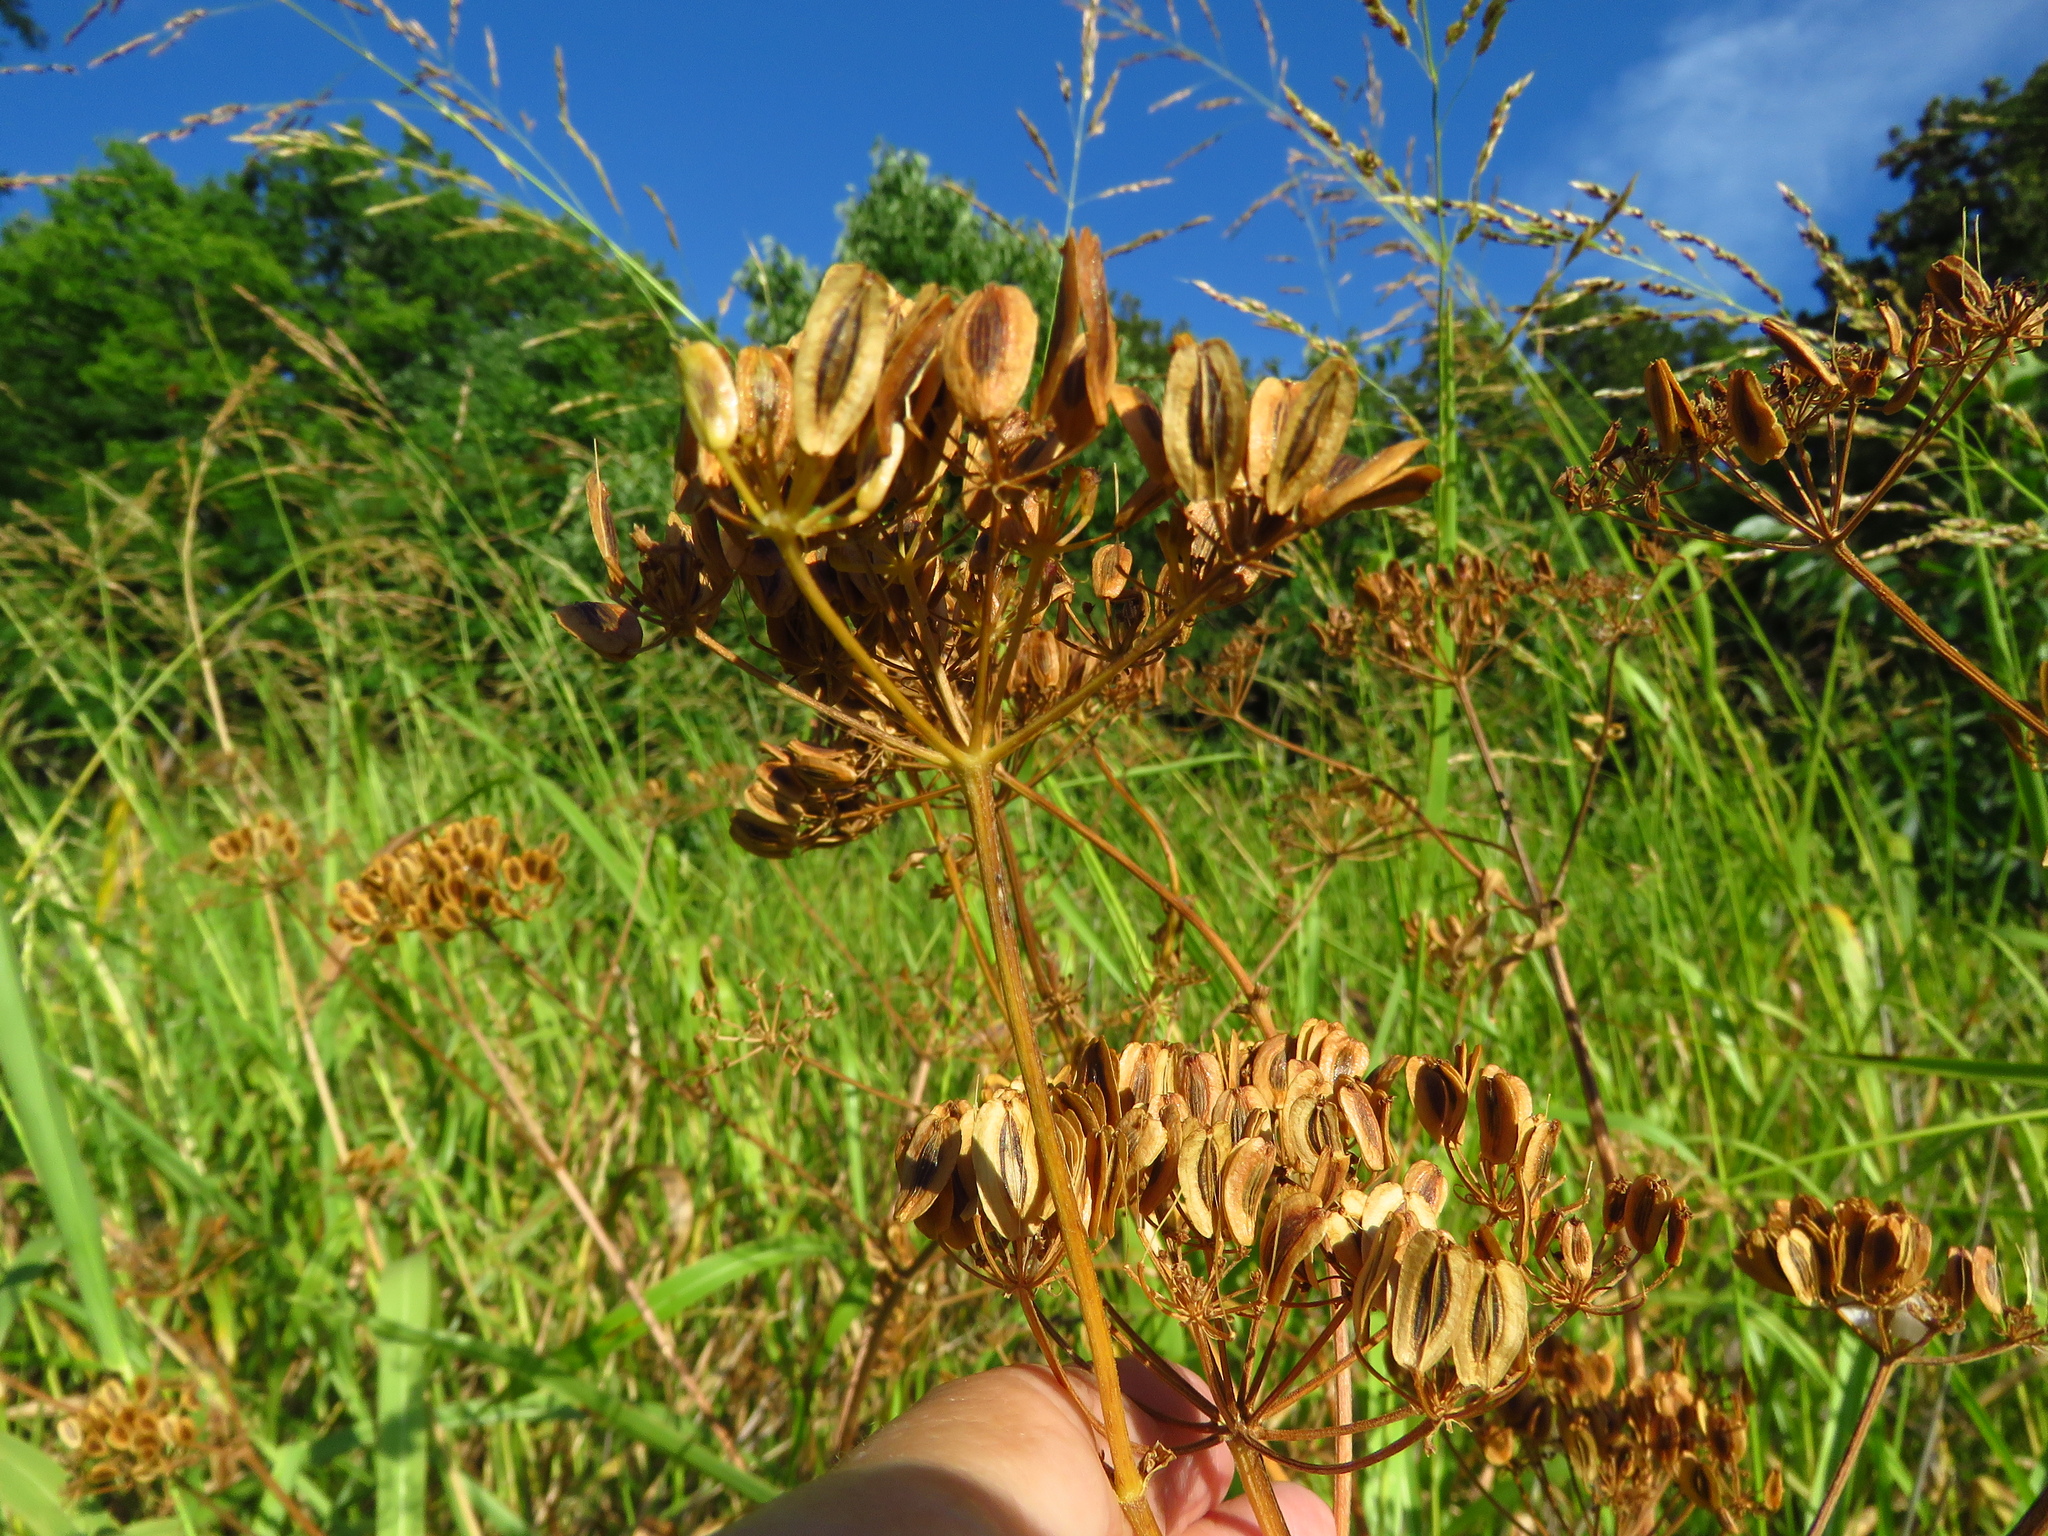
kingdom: Plantae
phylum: Tracheophyta
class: Magnoliopsida
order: Apiales
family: Apiaceae
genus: Polytaenia
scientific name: Polytaenia texana
